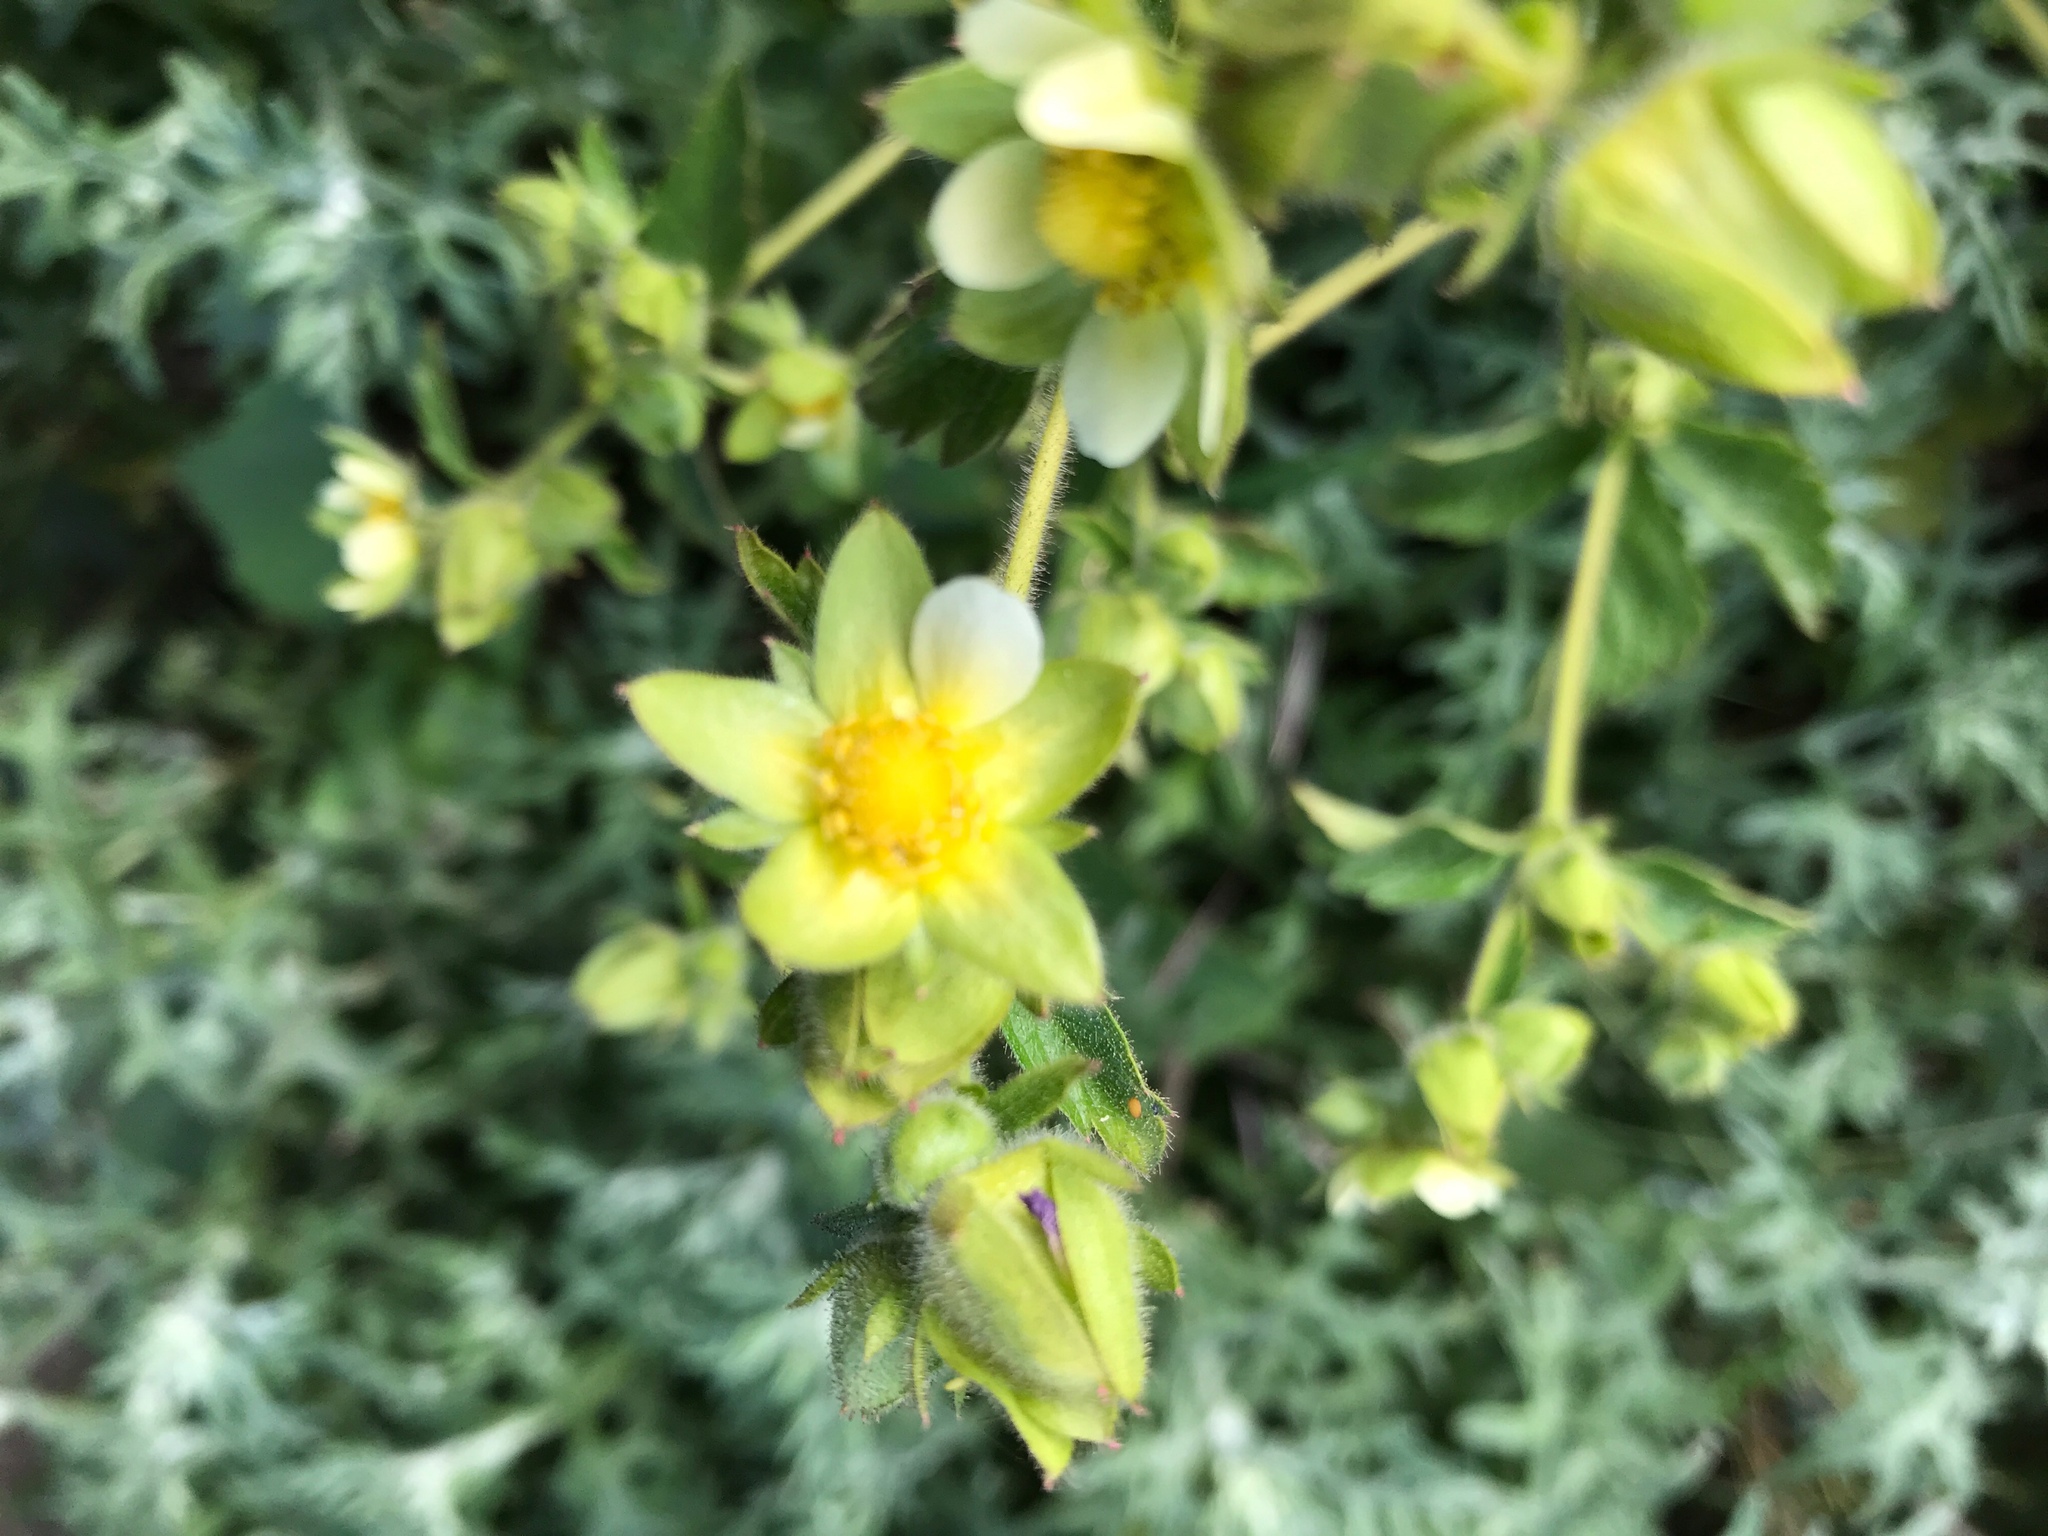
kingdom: Plantae
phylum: Tracheophyta
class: Magnoliopsida
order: Rosales
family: Rosaceae
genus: Drymocallis
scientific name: Drymocallis glandulosa
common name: Sticky cinquefoil
